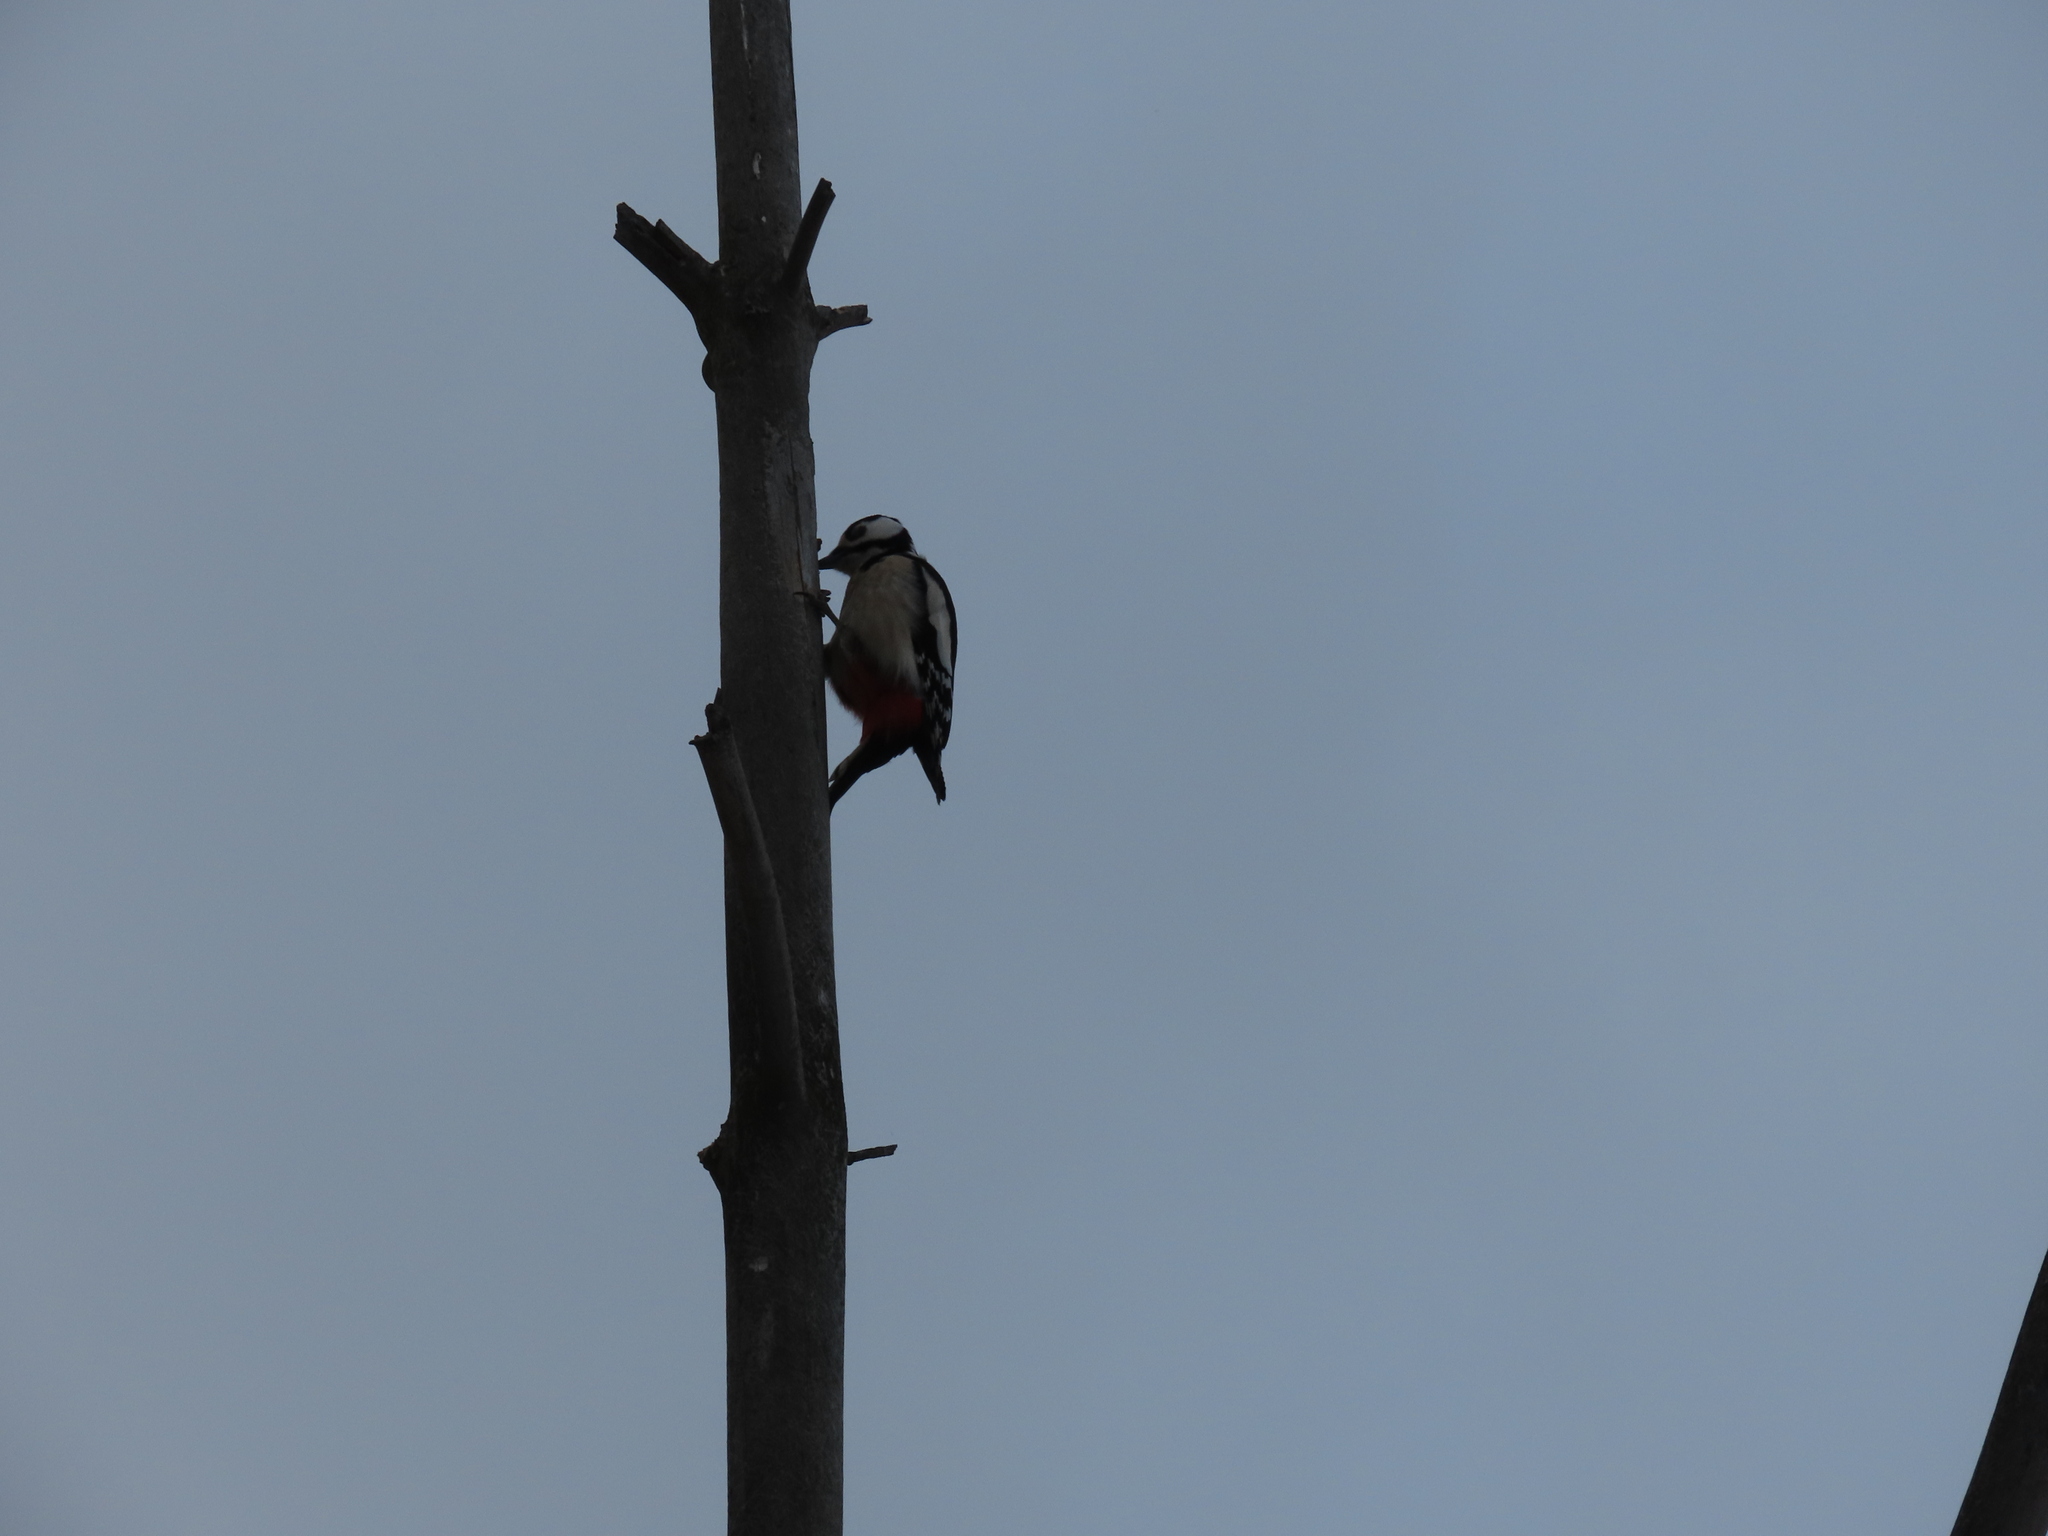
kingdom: Animalia
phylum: Chordata
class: Aves
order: Piciformes
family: Picidae
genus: Dendrocopos
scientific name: Dendrocopos major
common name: Great spotted woodpecker
